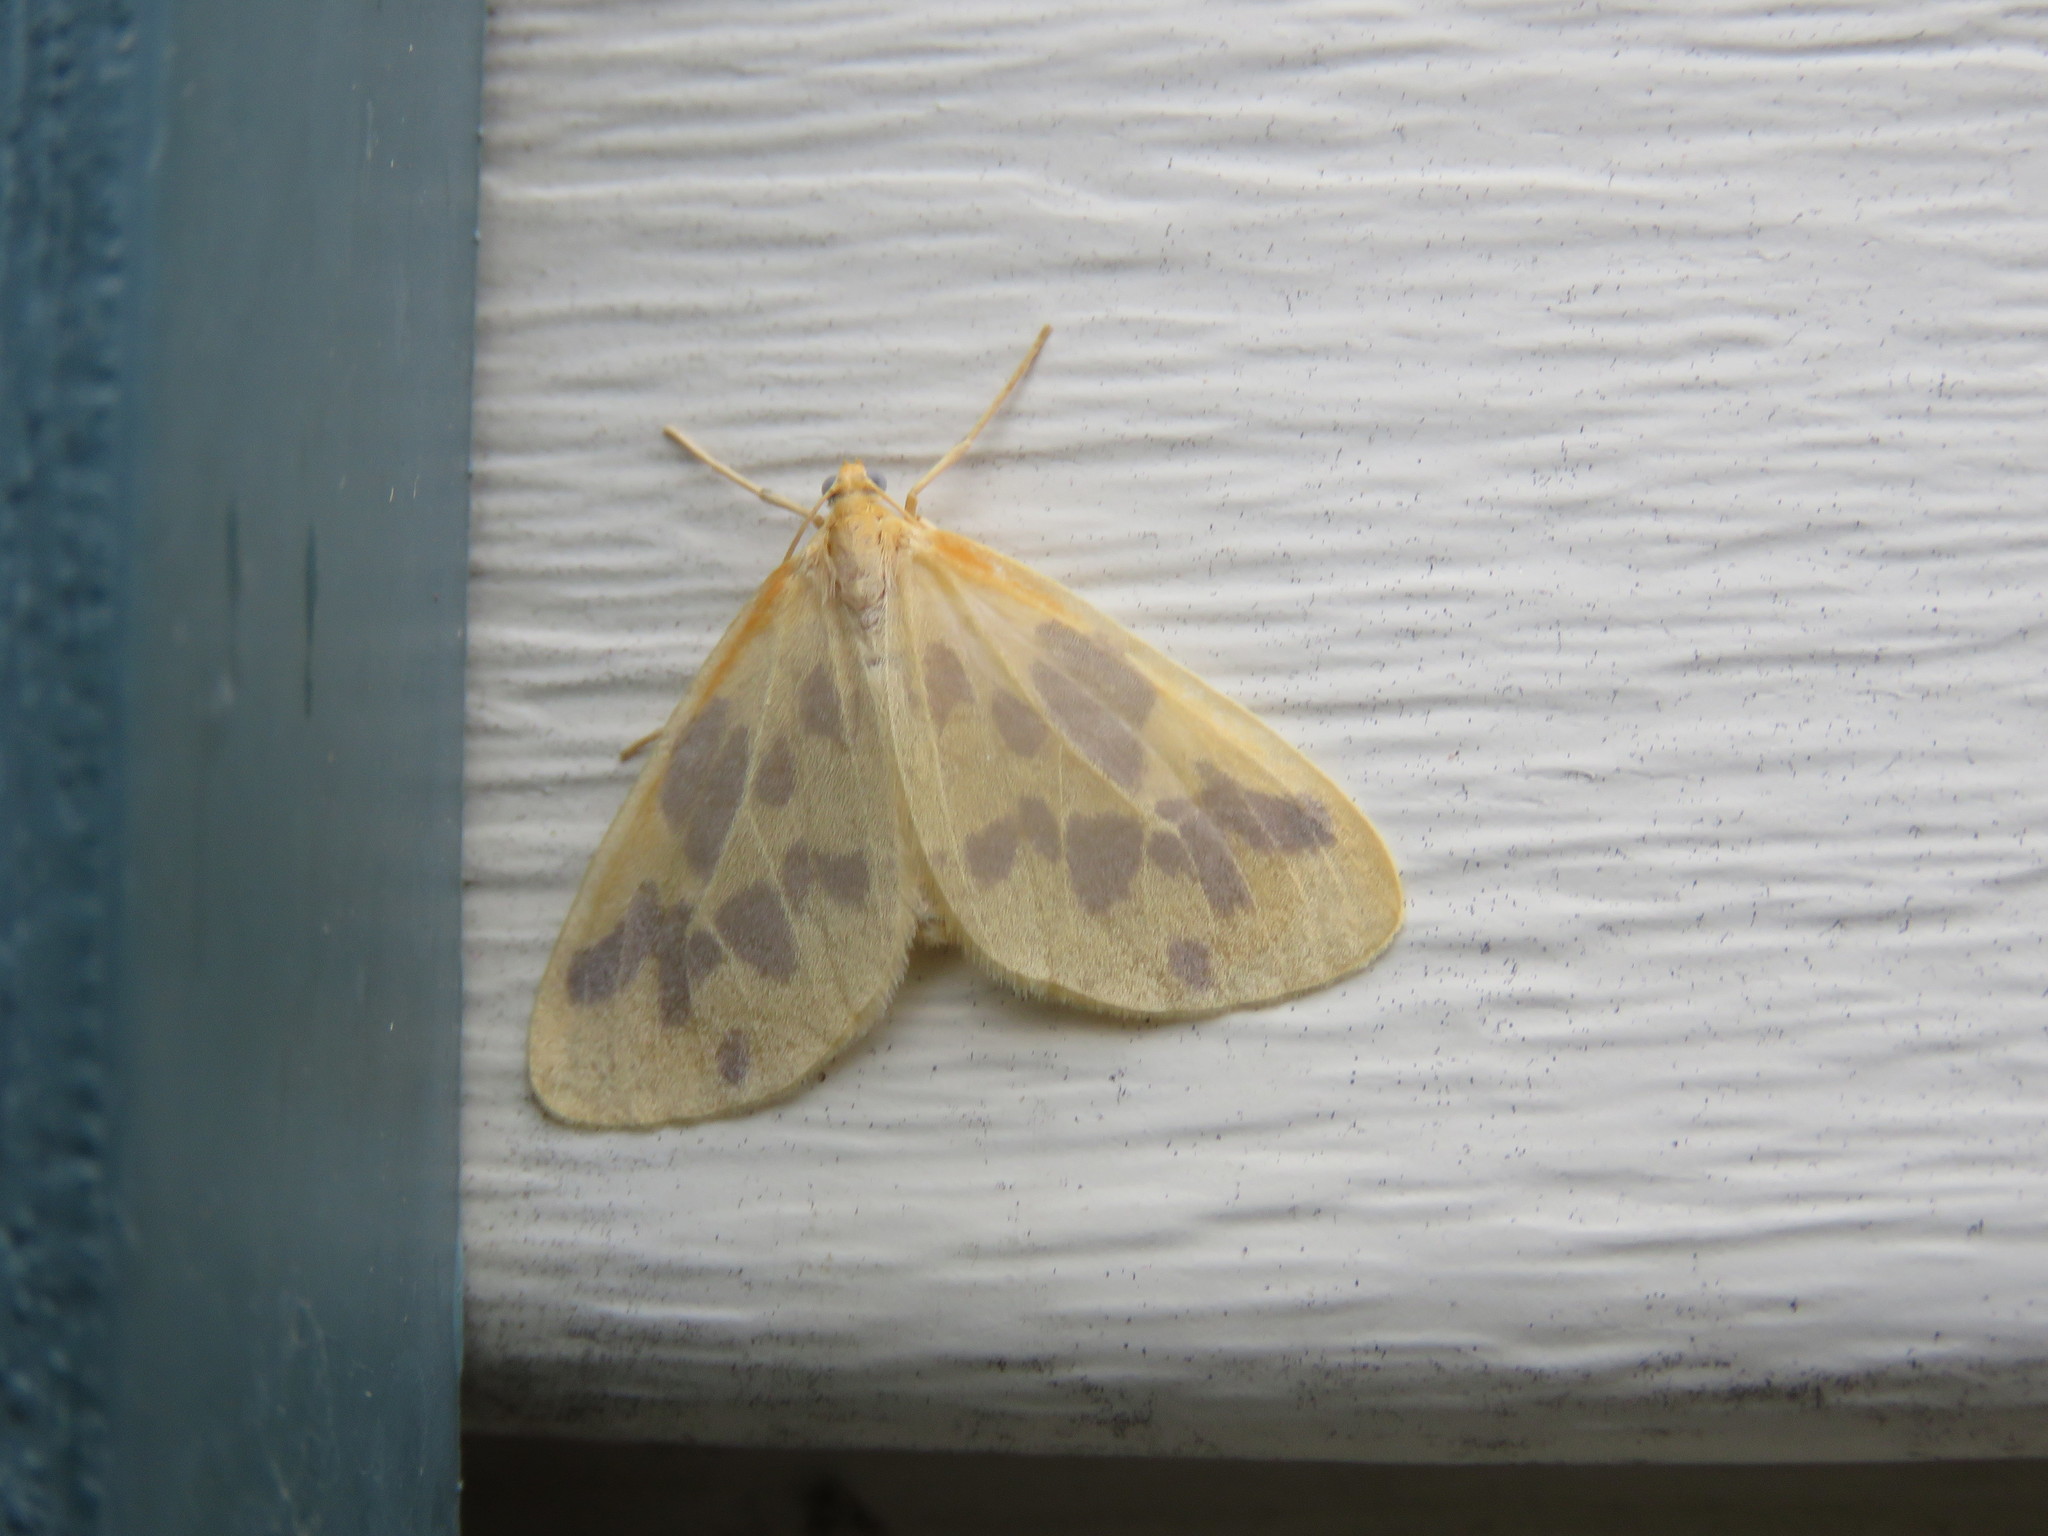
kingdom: Animalia
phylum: Arthropoda
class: Insecta
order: Lepidoptera
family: Geometridae
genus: Eubaphe
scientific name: Eubaphe mendica
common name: Beggar
